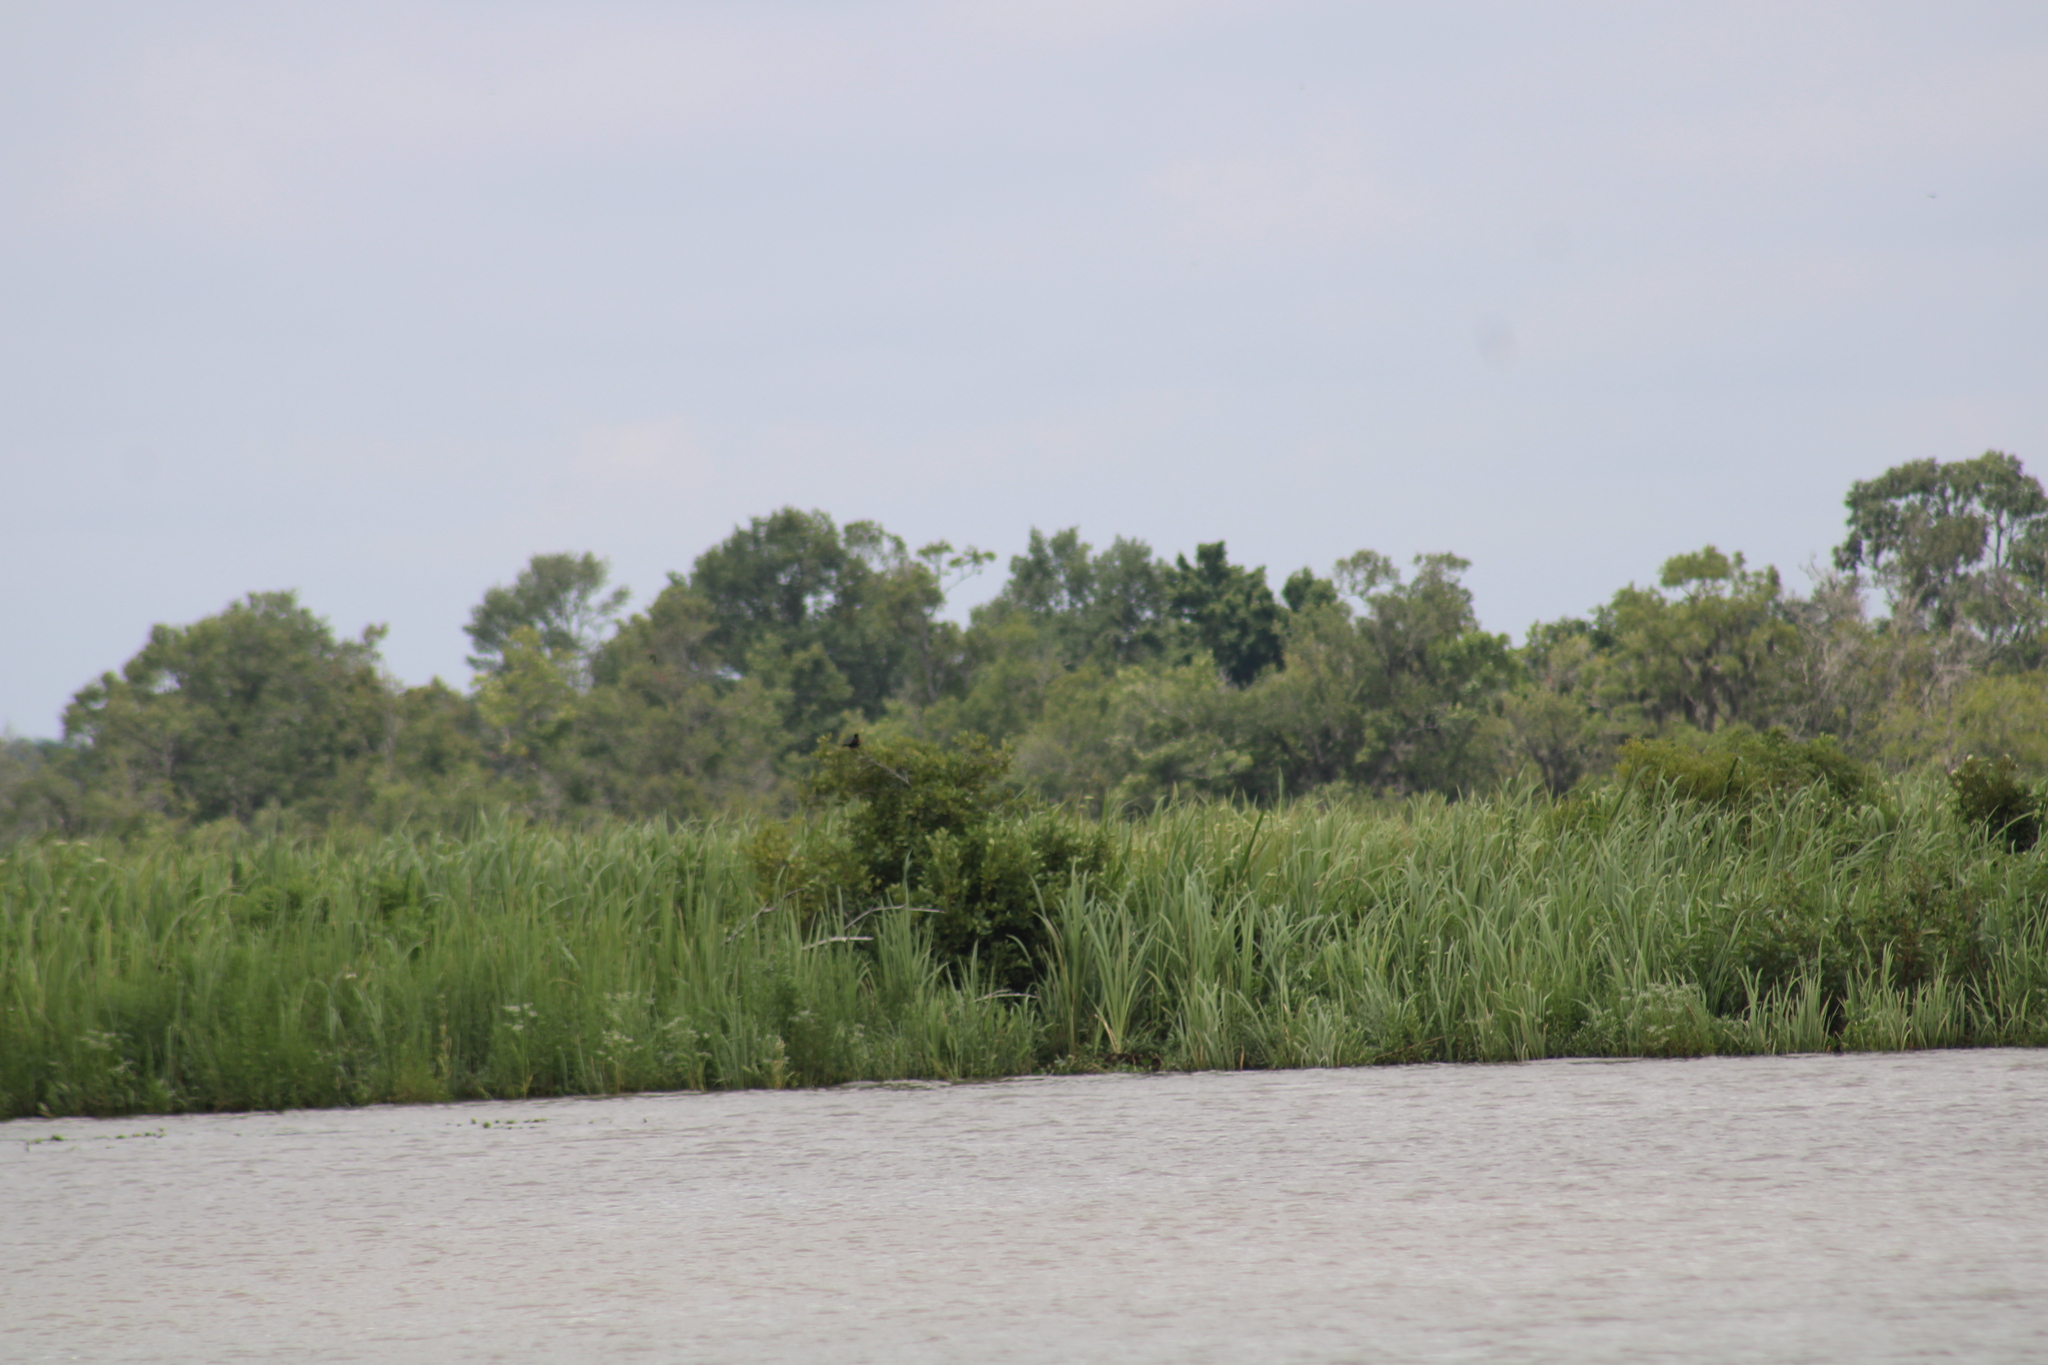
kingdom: Animalia
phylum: Chordata
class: Aves
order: Passeriformes
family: Icteridae
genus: Agelaius
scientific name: Agelaius phoeniceus
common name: Red-winged blackbird
